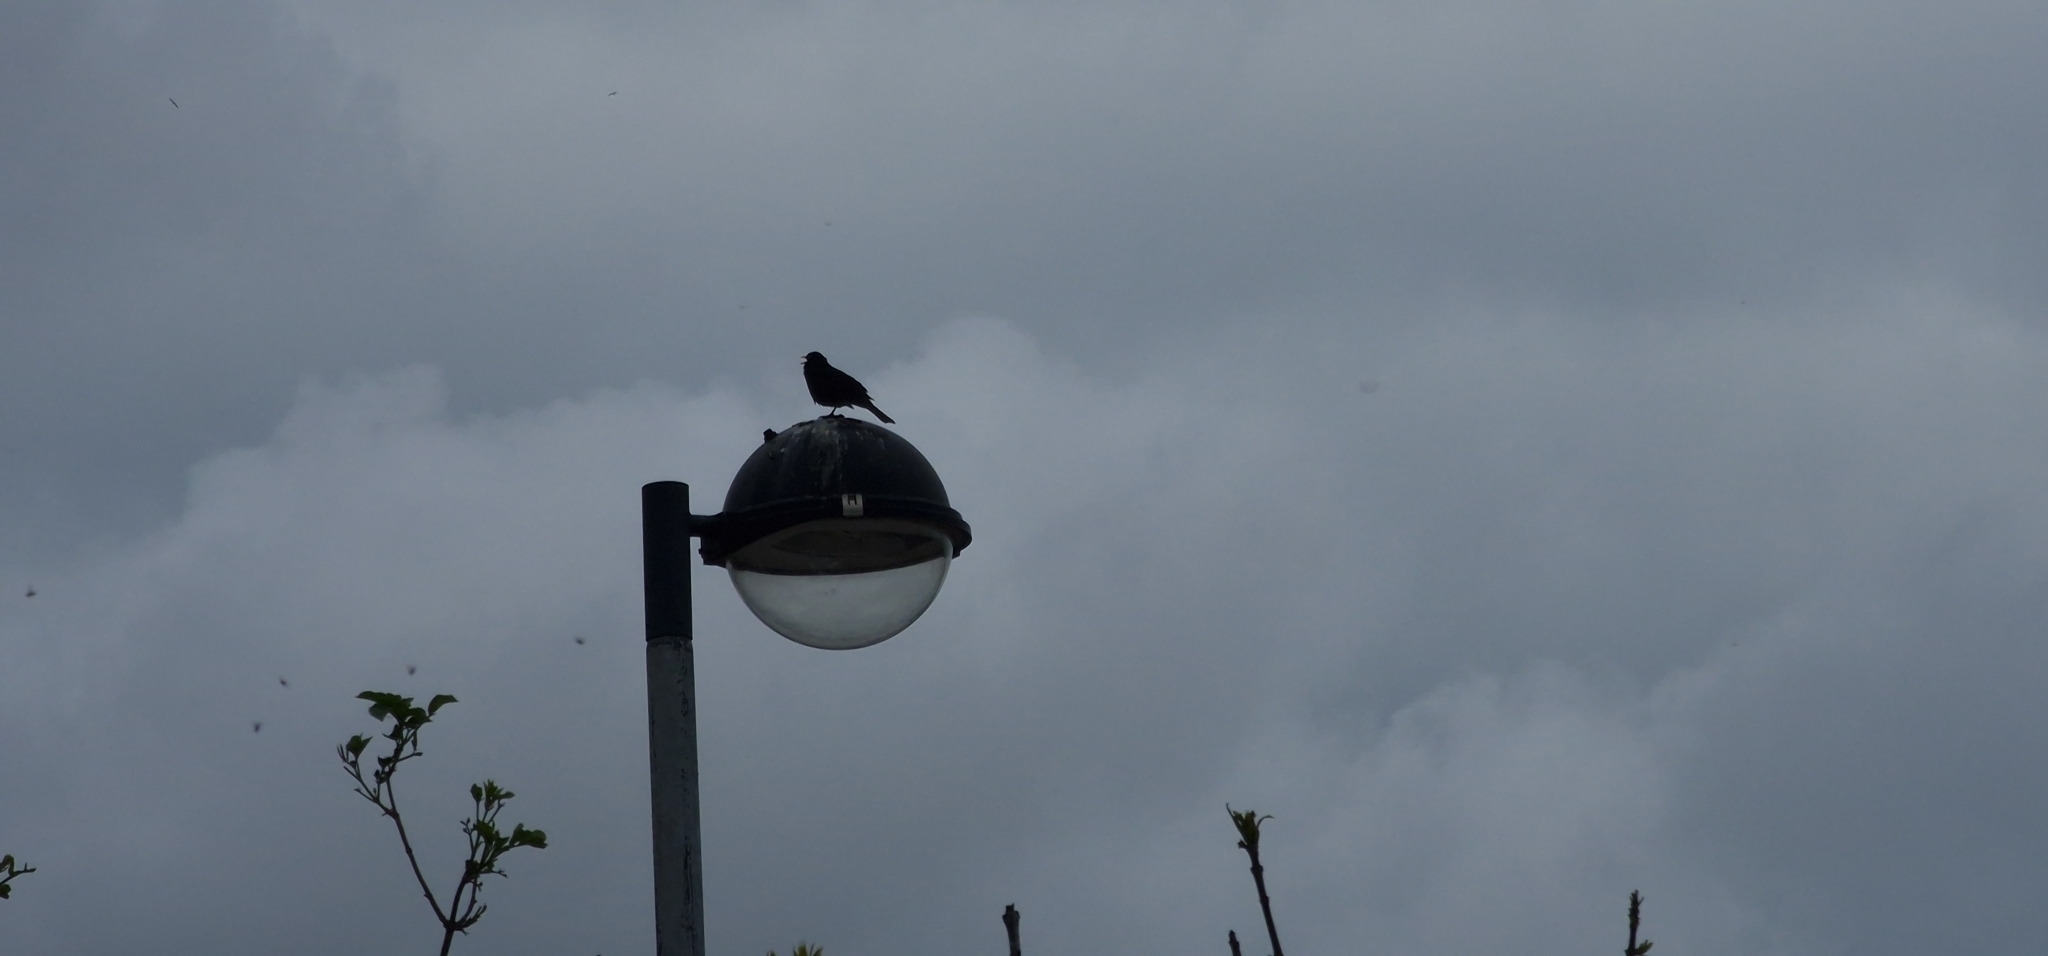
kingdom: Animalia
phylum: Chordata
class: Aves
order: Passeriformes
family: Turdidae
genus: Turdus
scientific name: Turdus merula
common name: Common blackbird
